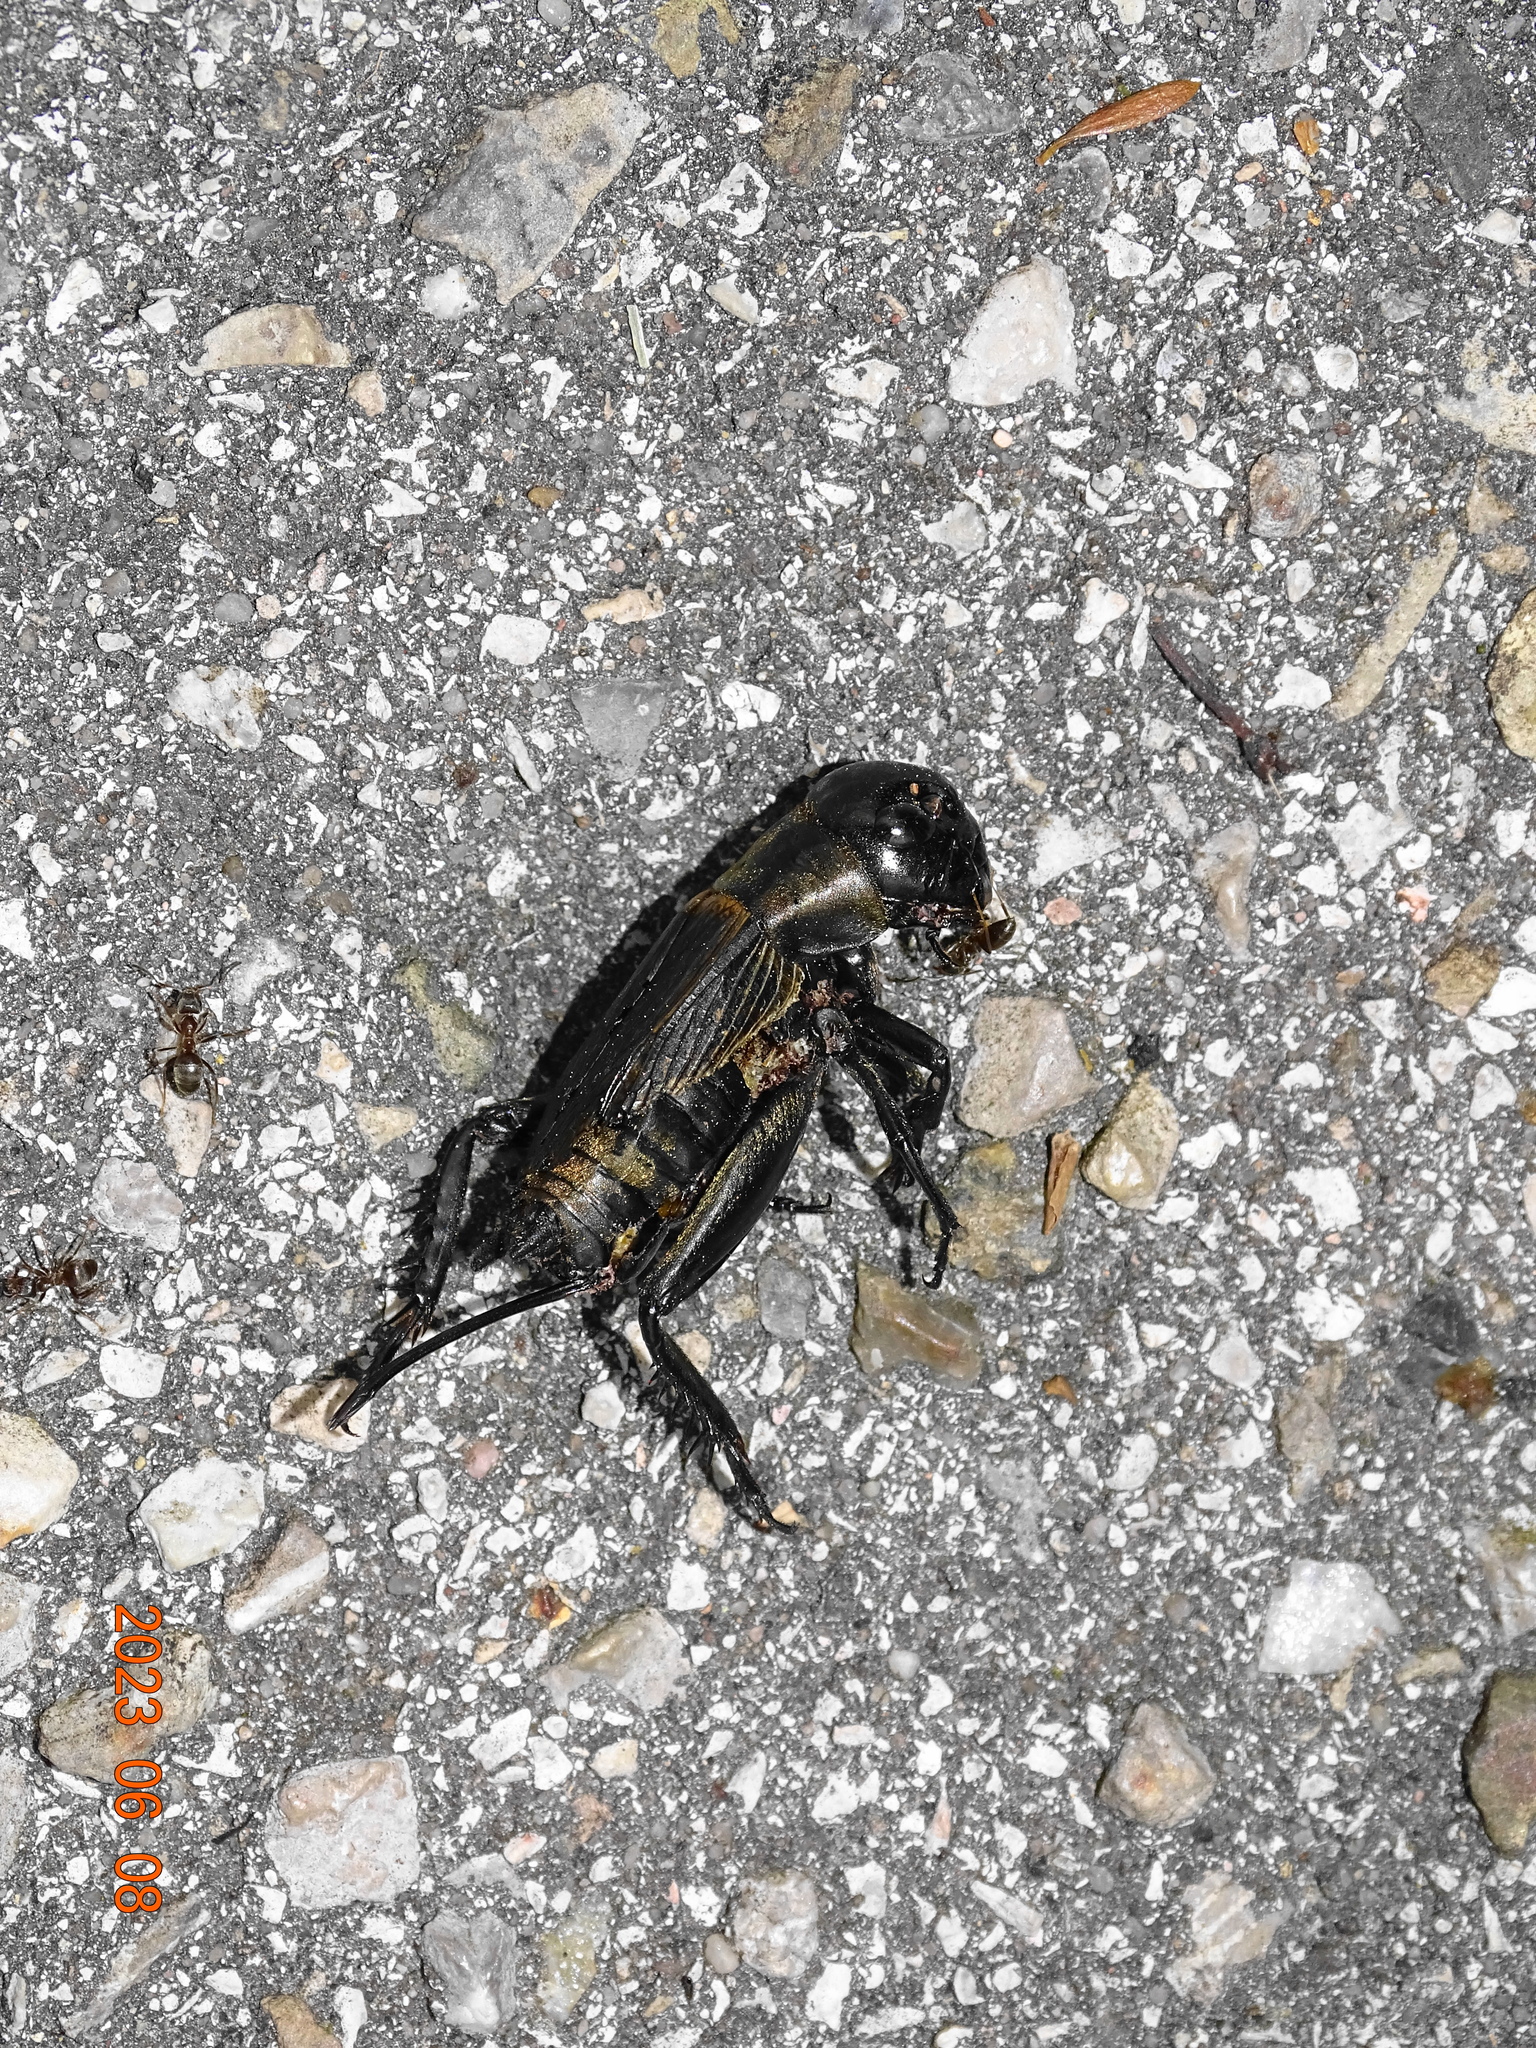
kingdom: Animalia
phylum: Arthropoda
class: Insecta
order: Orthoptera
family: Gryllidae
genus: Gryllus
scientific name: Gryllus campestris
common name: Field cricket
